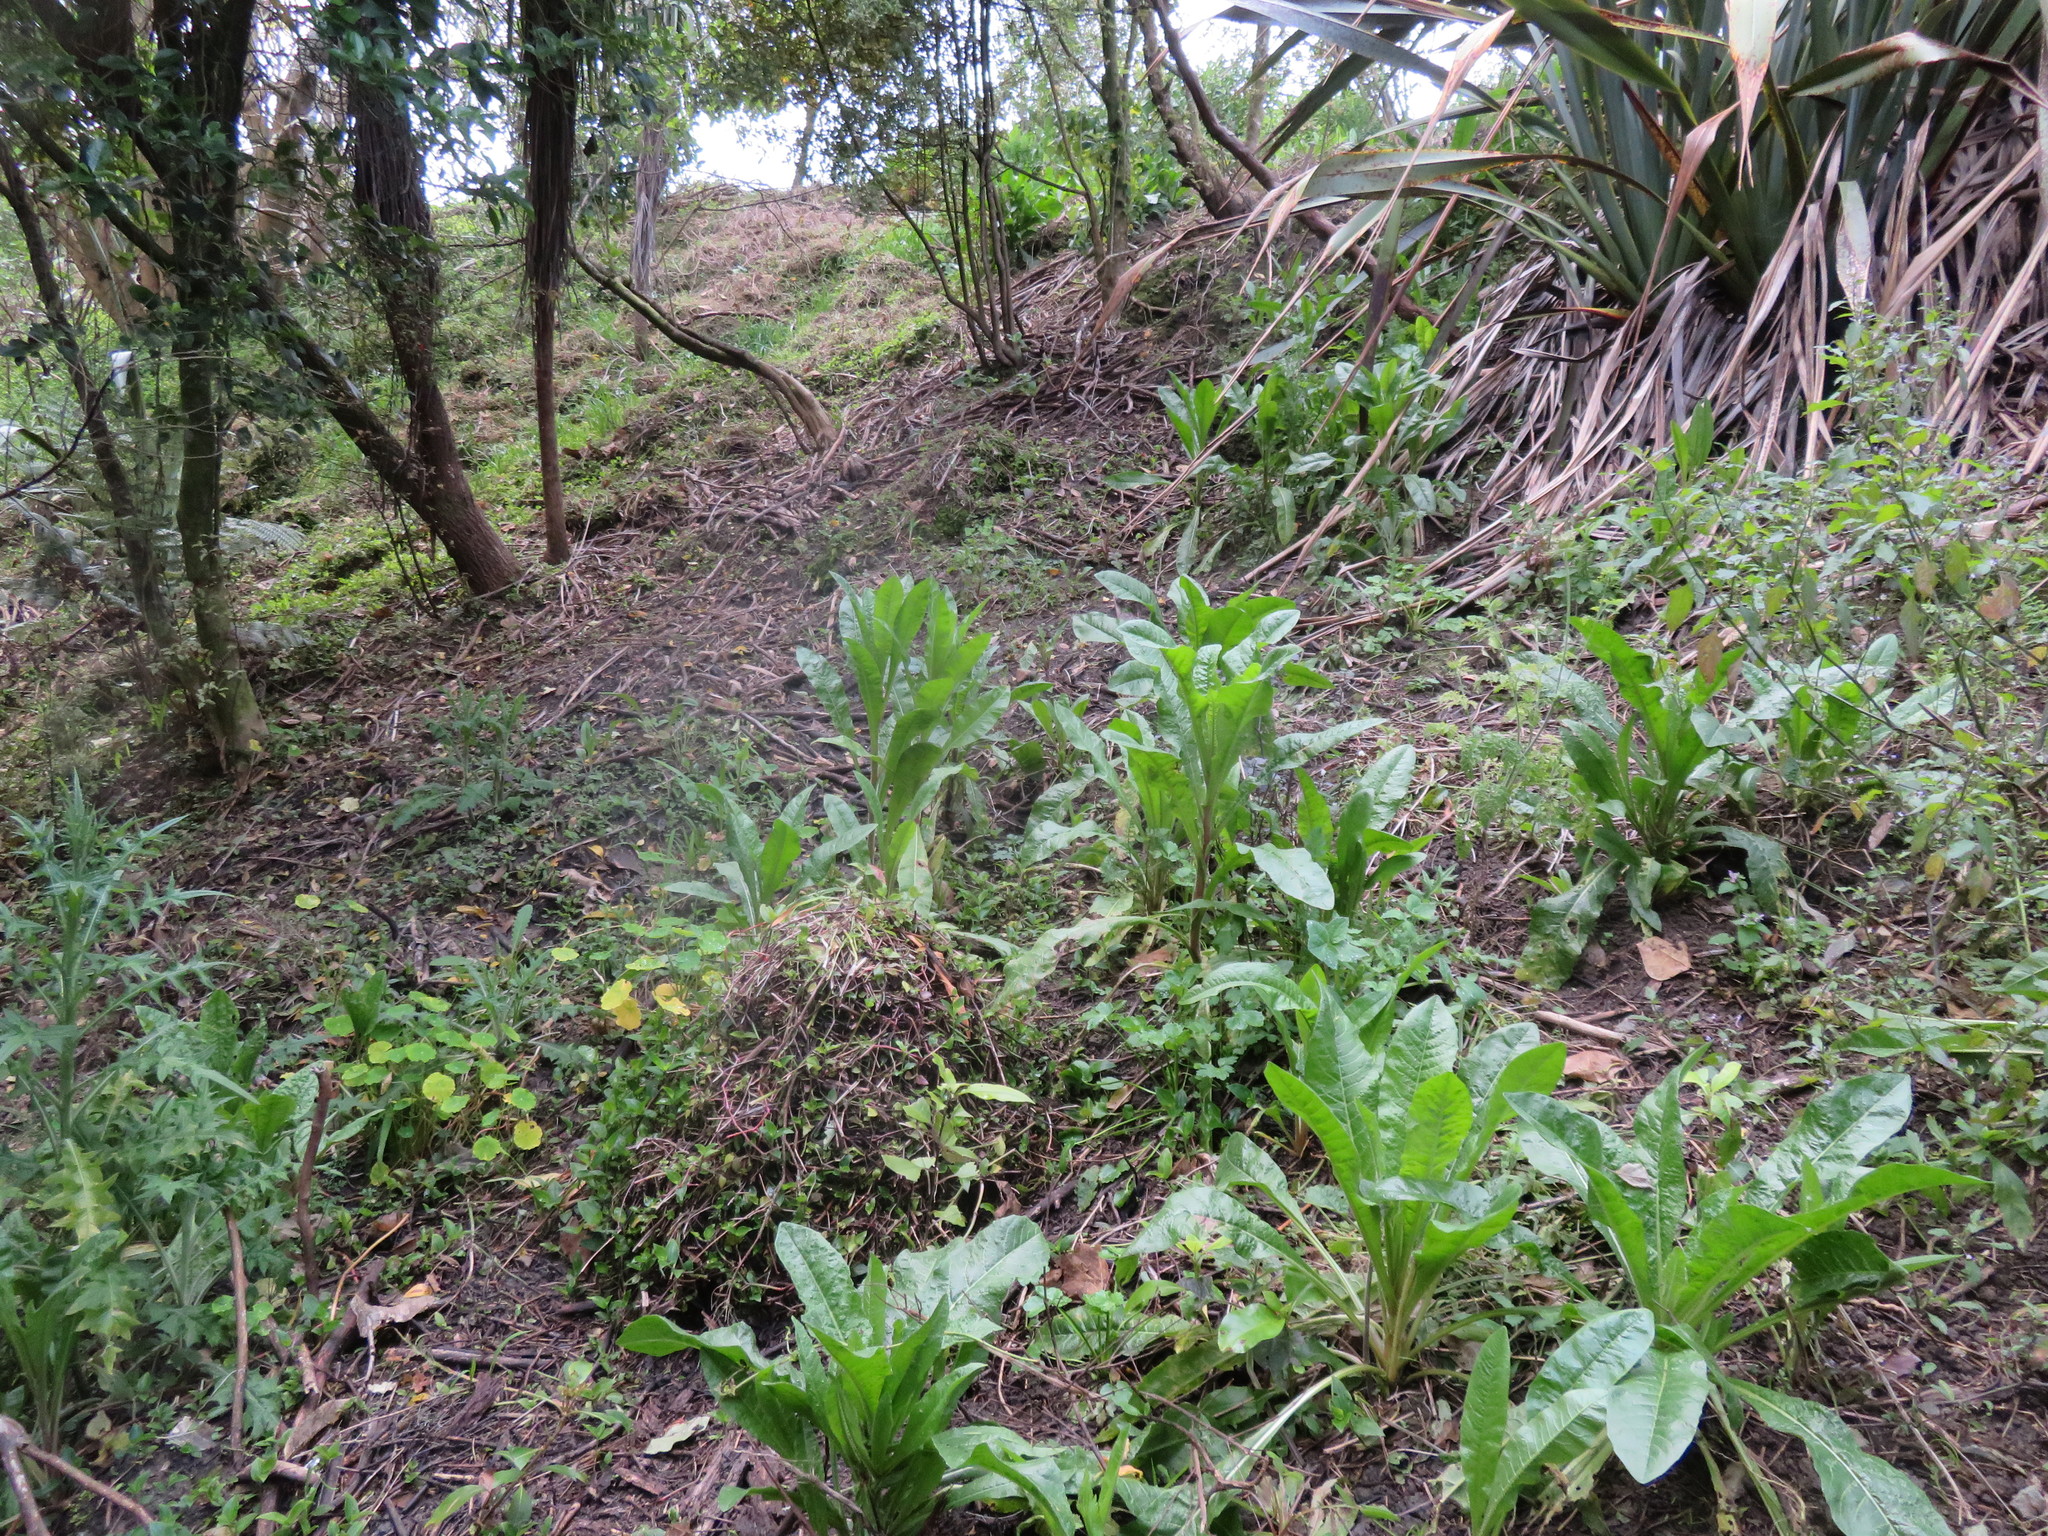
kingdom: Plantae
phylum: Tracheophyta
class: Liliopsida
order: Commelinales
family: Commelinaceae
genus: Tradescantia
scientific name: Tradescantia fluminensis
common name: Wandering-jew
